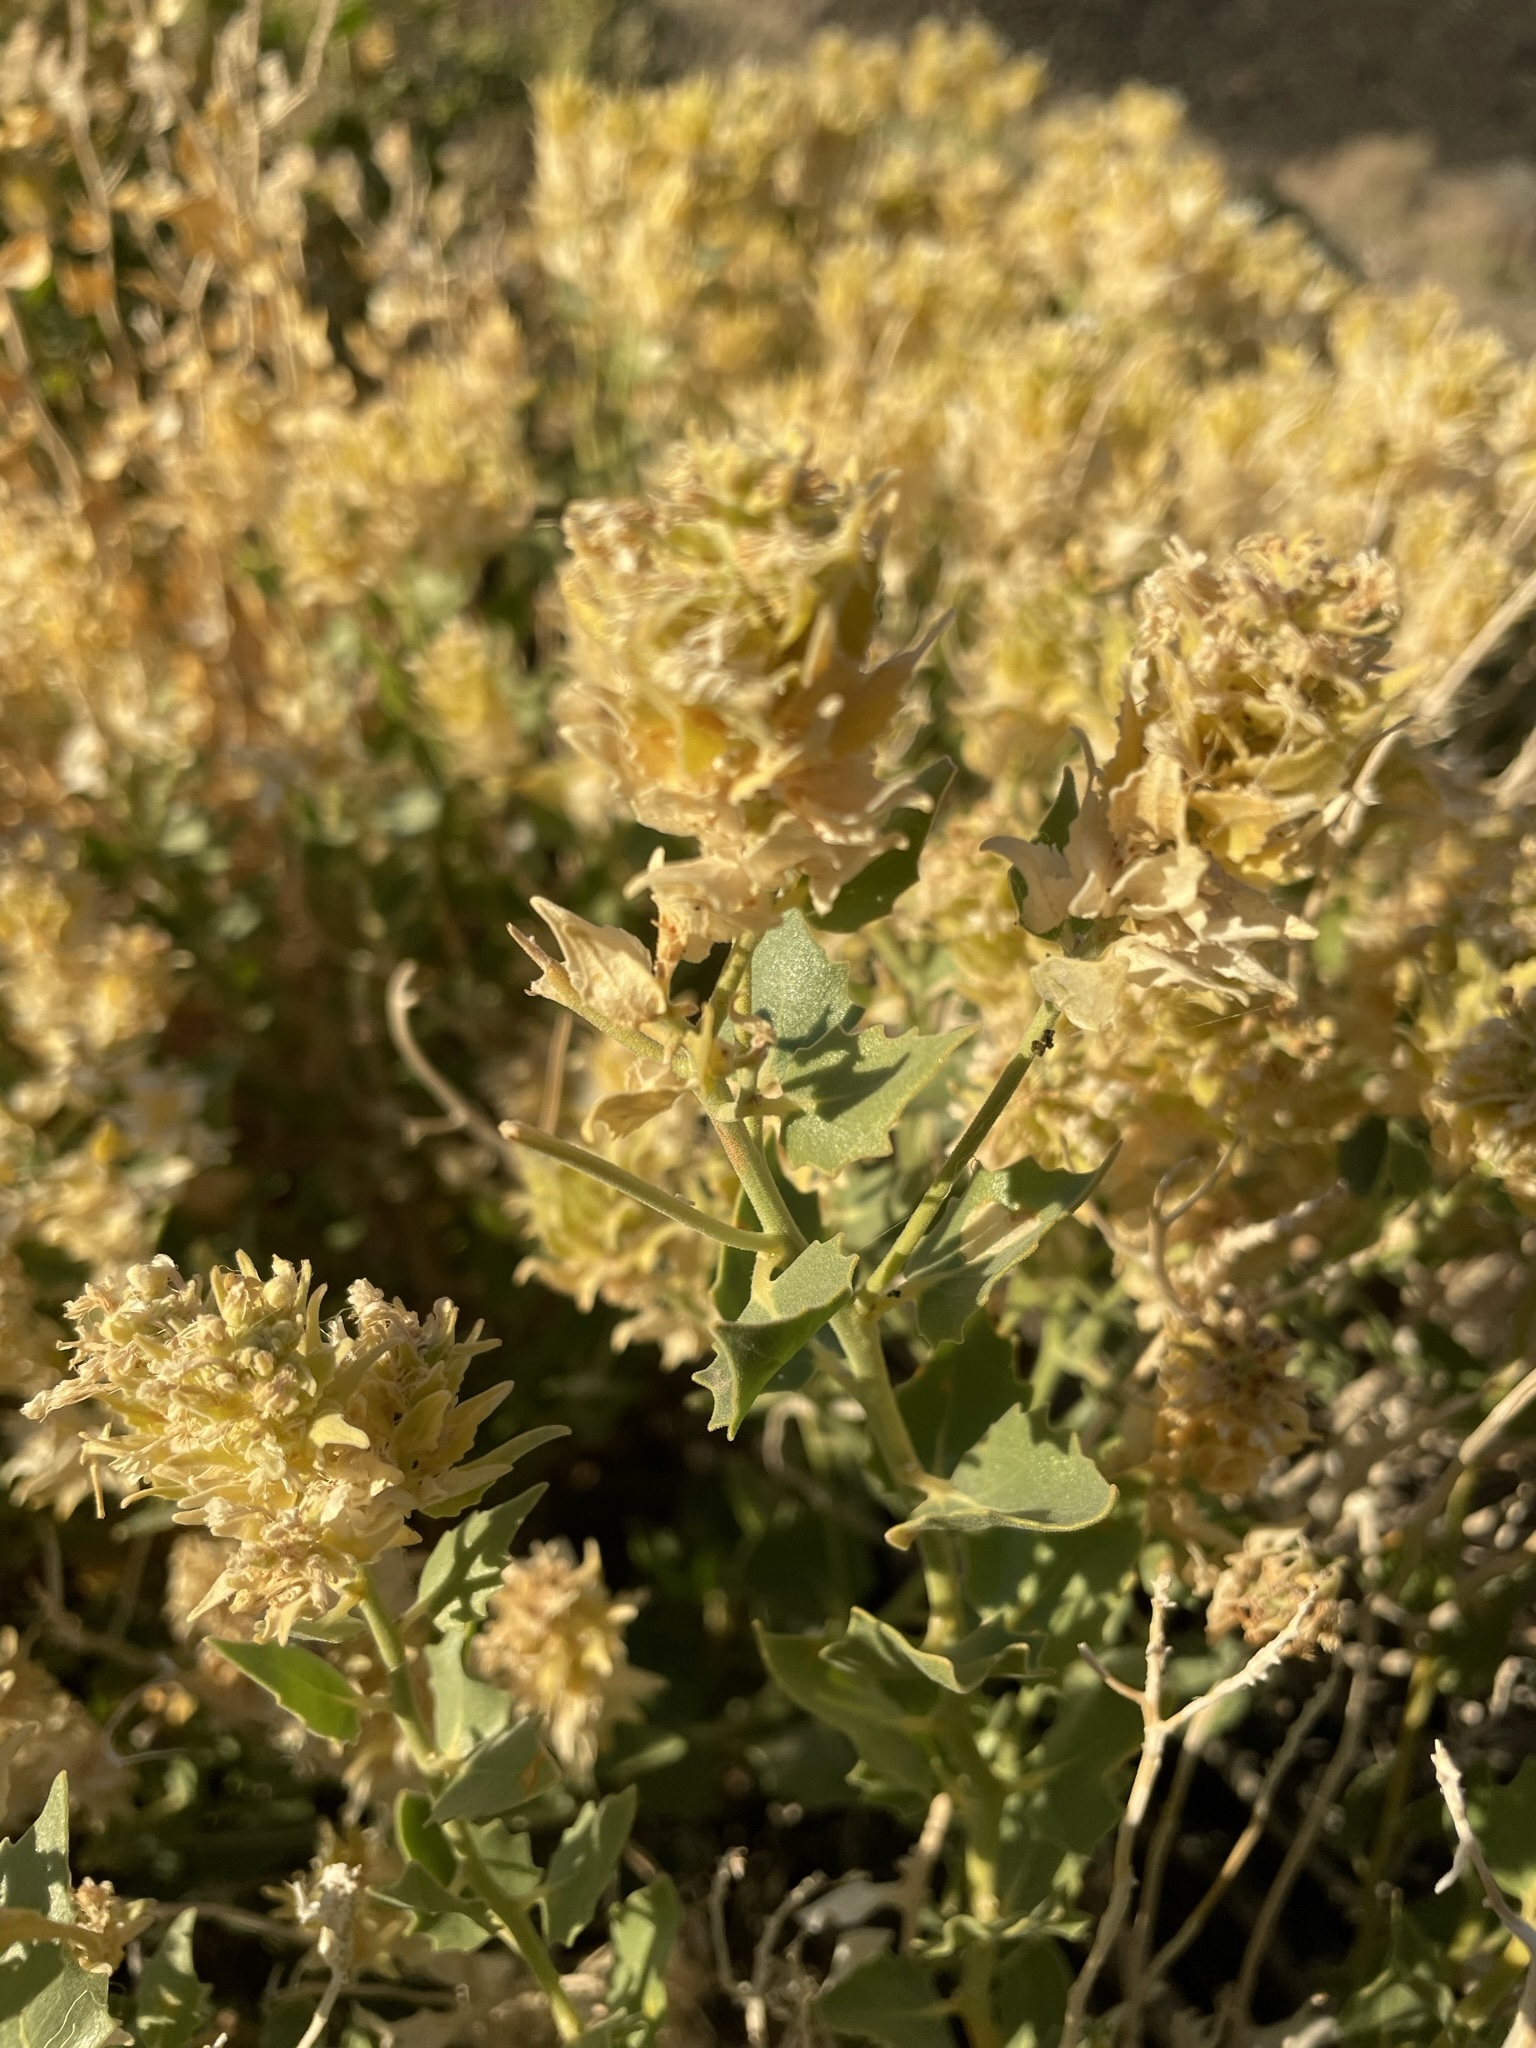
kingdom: Plantae
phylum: Tracheophyta
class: Magnoliopsida
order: Cornales
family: Loasaceae
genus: Petalonyx
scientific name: Petalonyx nitidus
